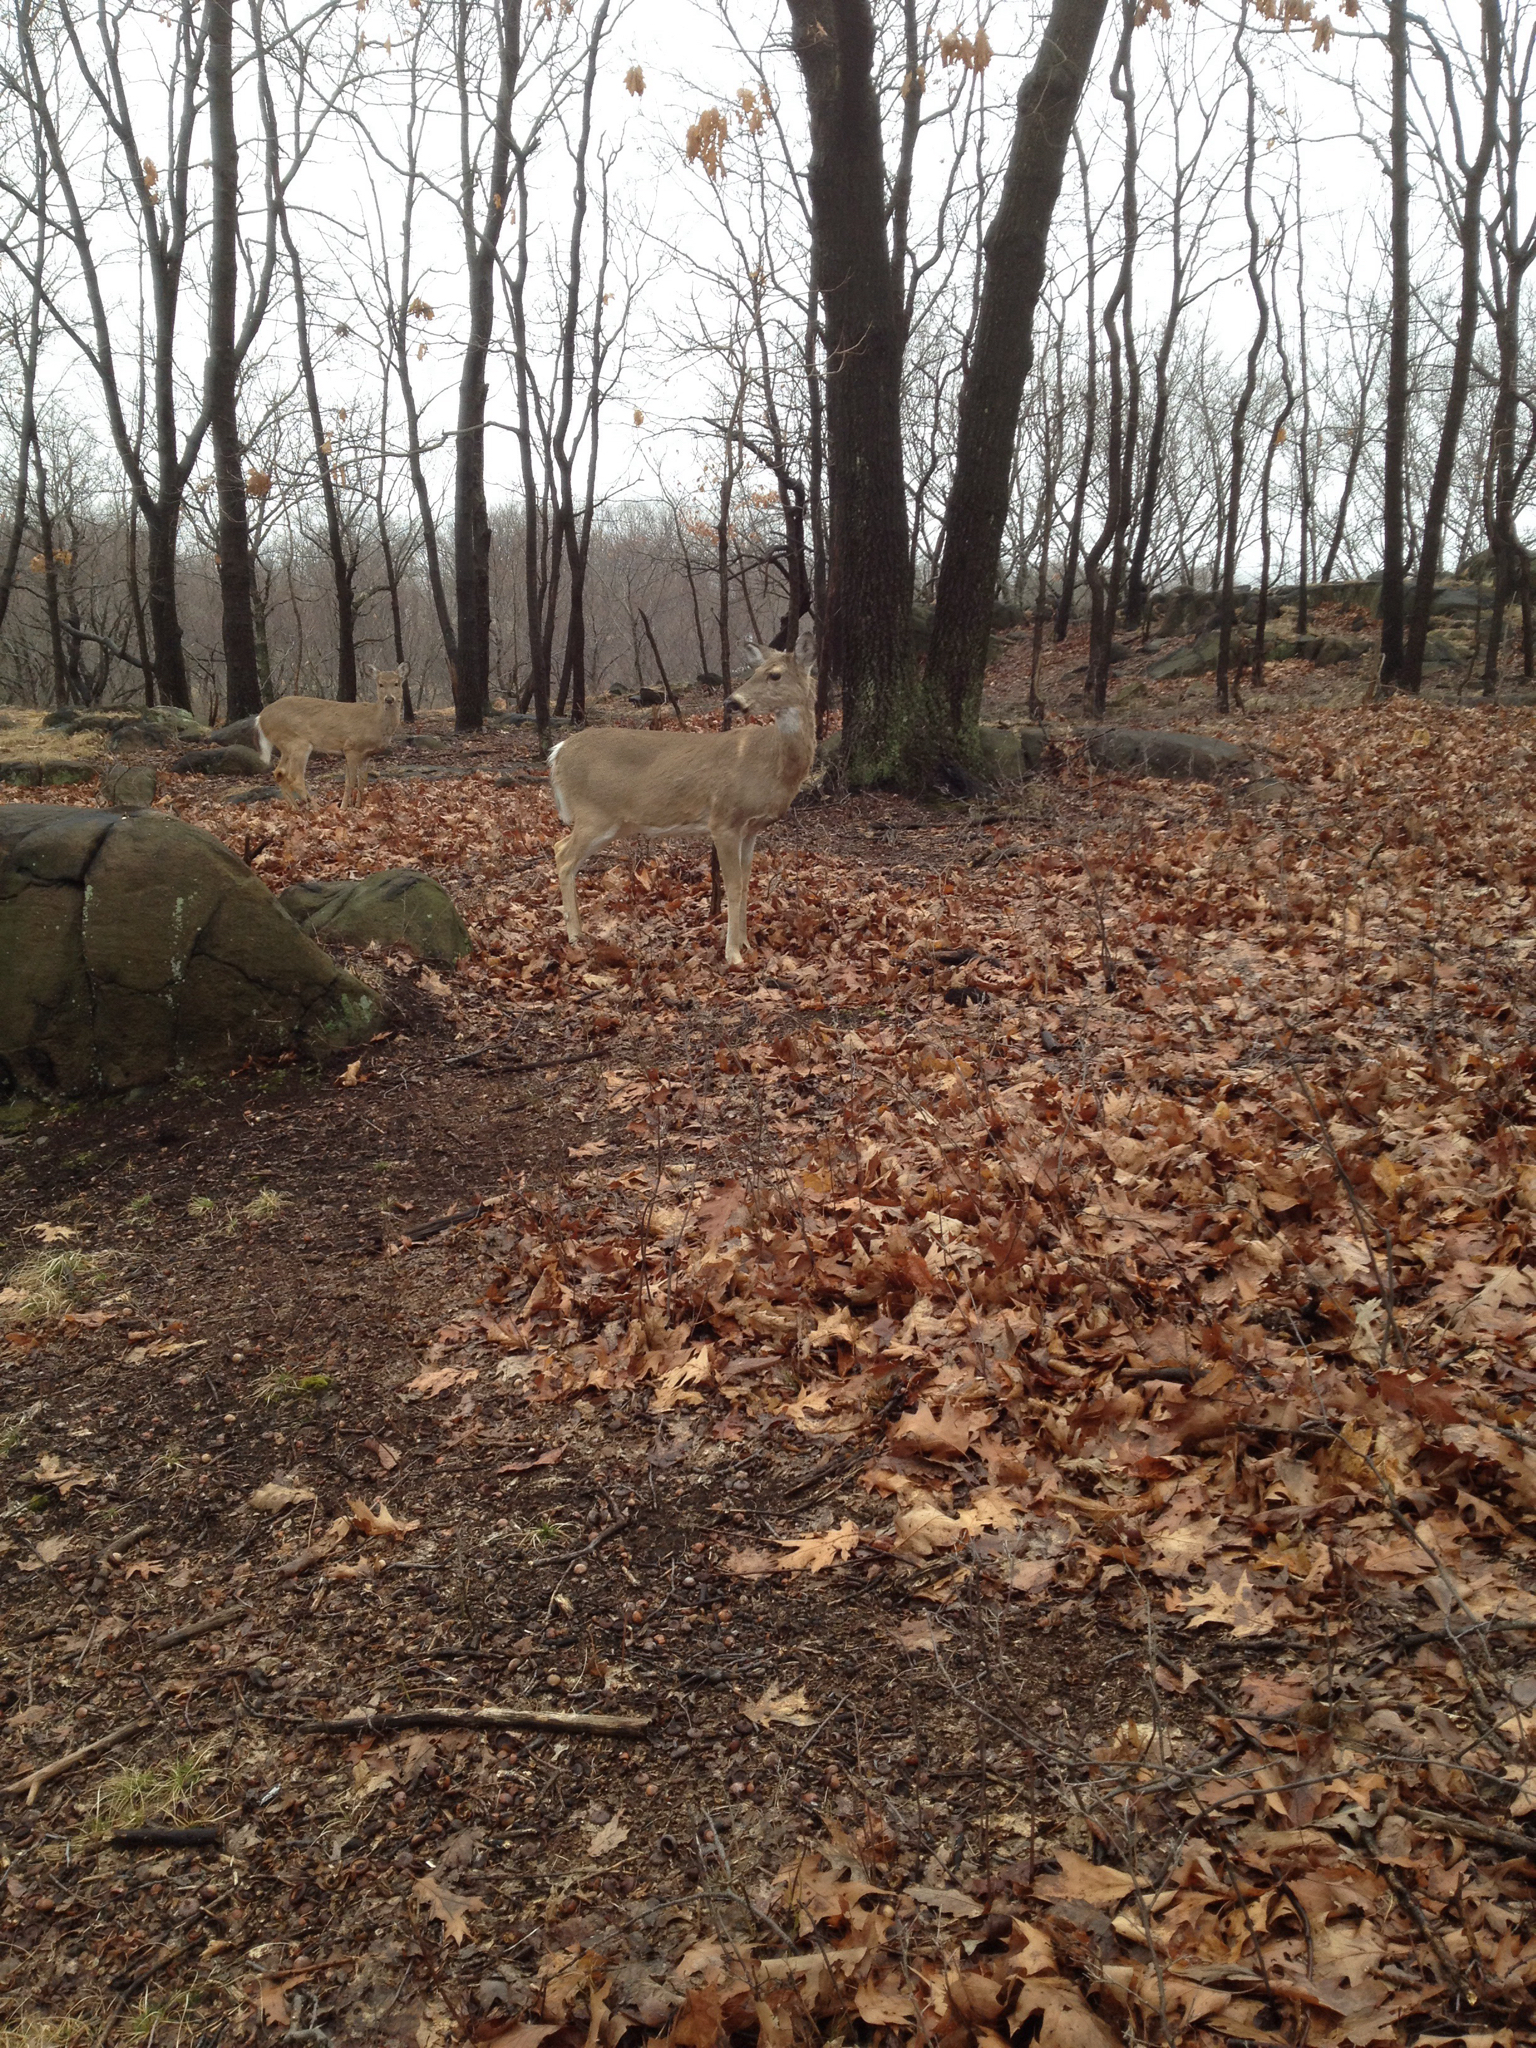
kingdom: Animalia
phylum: Chordata
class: Mammalia
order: Artiodactyla
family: Cervidae
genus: Odocoileus
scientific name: Odocoileus virginianus
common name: White-tailed deer
